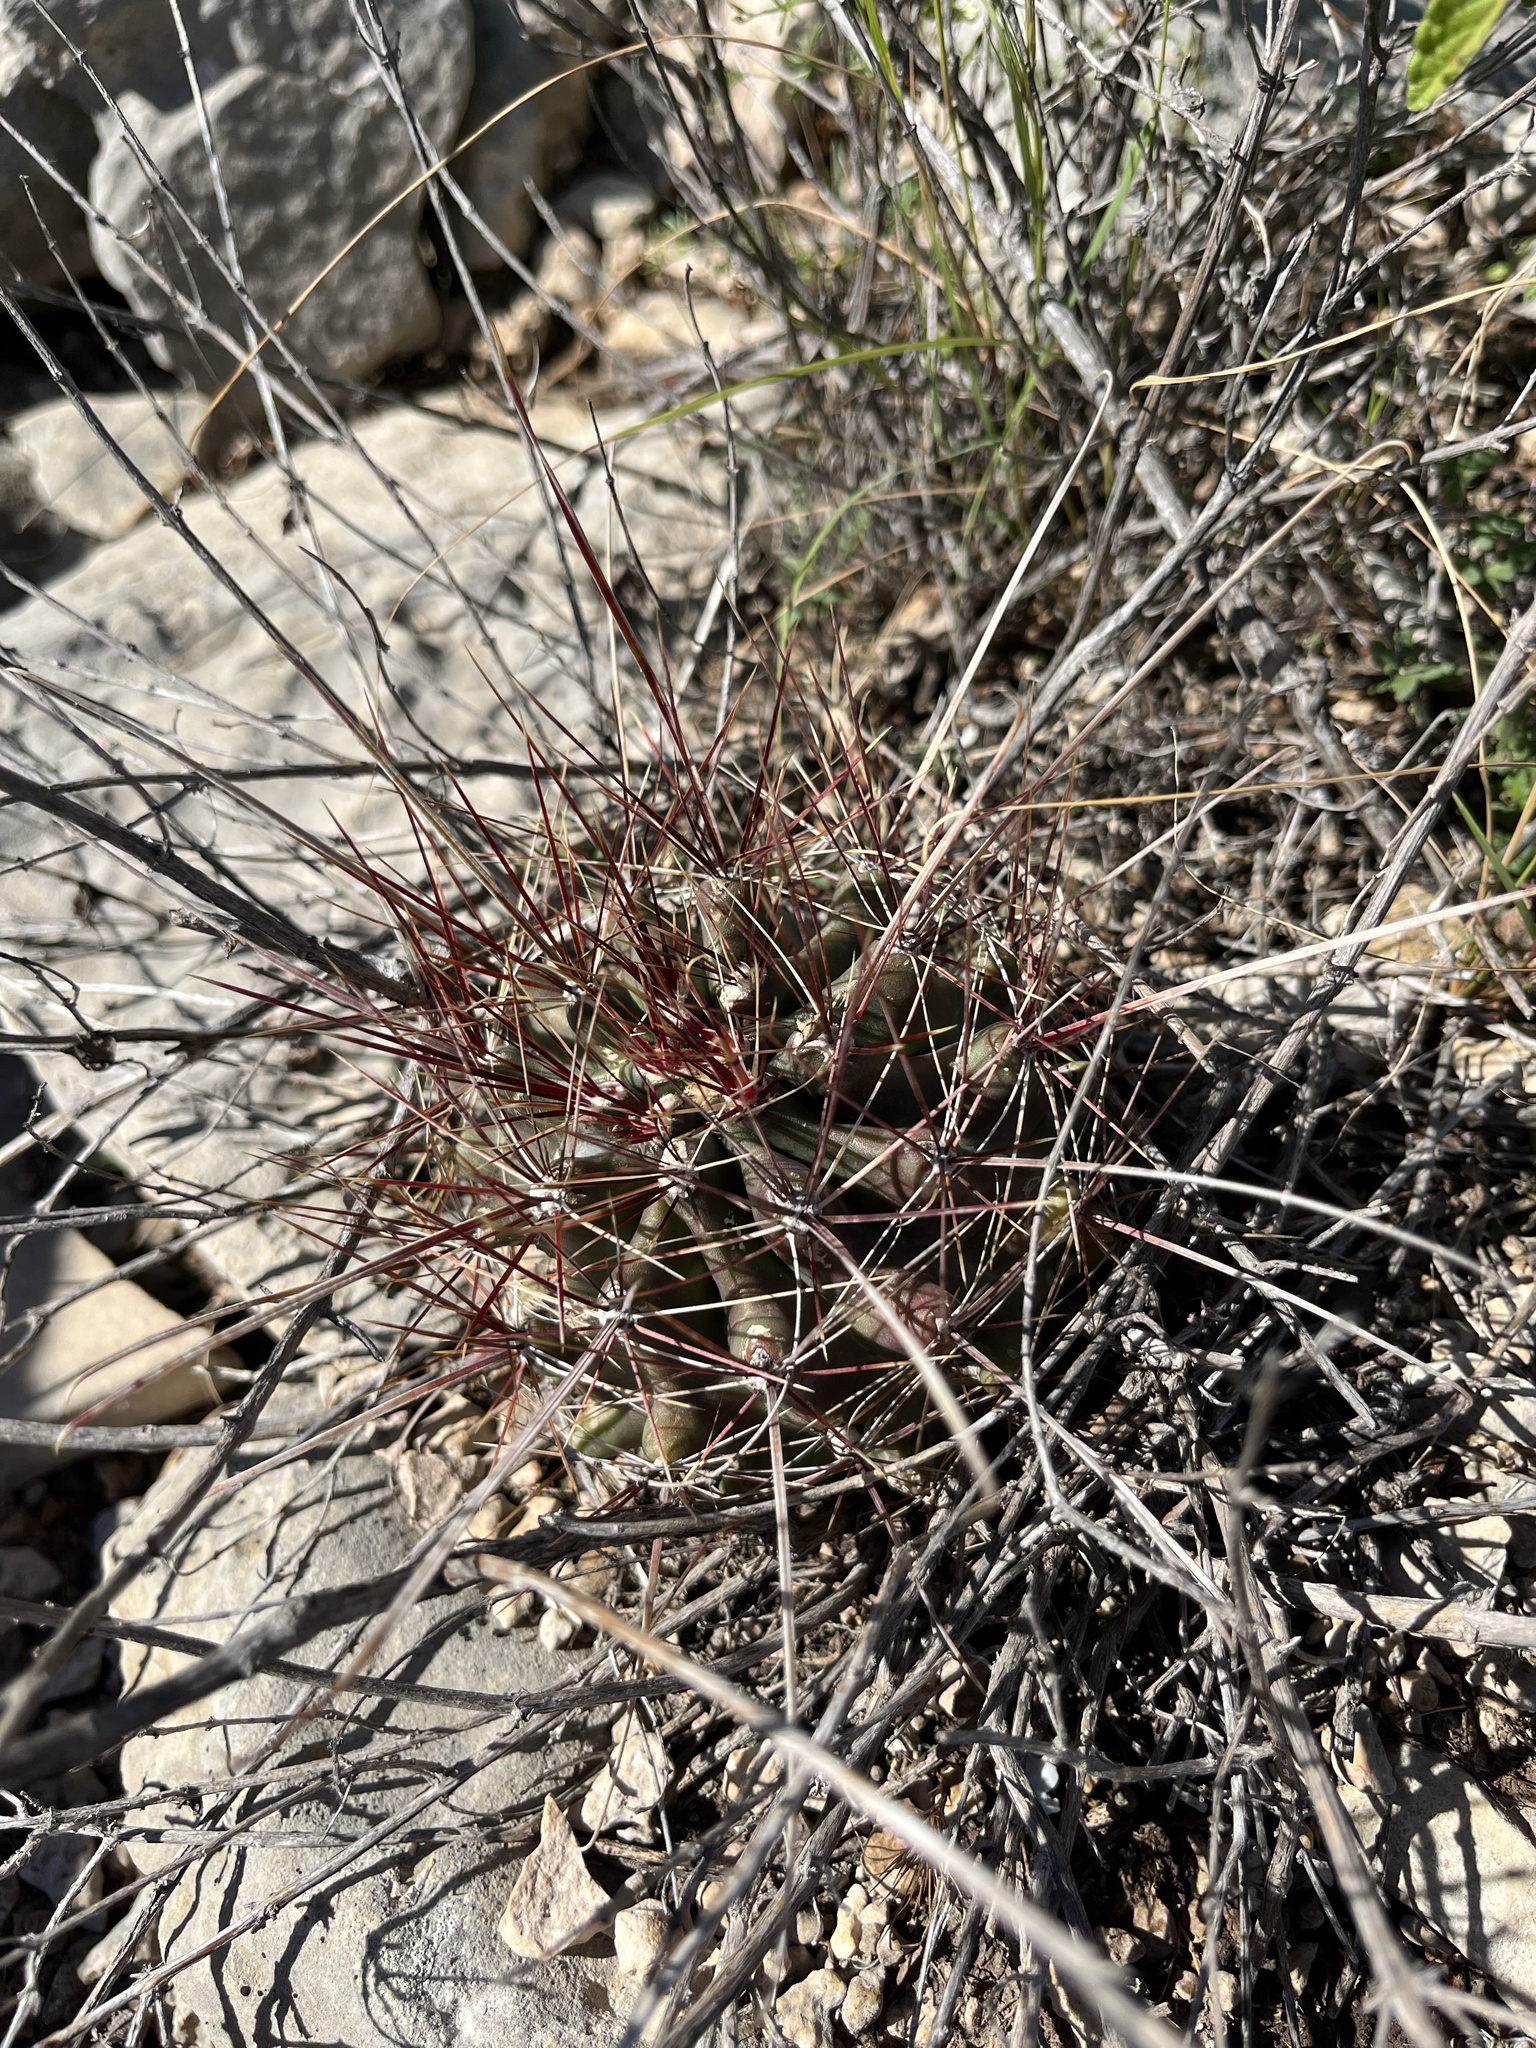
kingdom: Plantae
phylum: Tracheophyta
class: Magnoliopsida
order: Caryophyllales
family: Cactaceae
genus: Bisnaga
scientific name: Bisnaga hamatacantha
